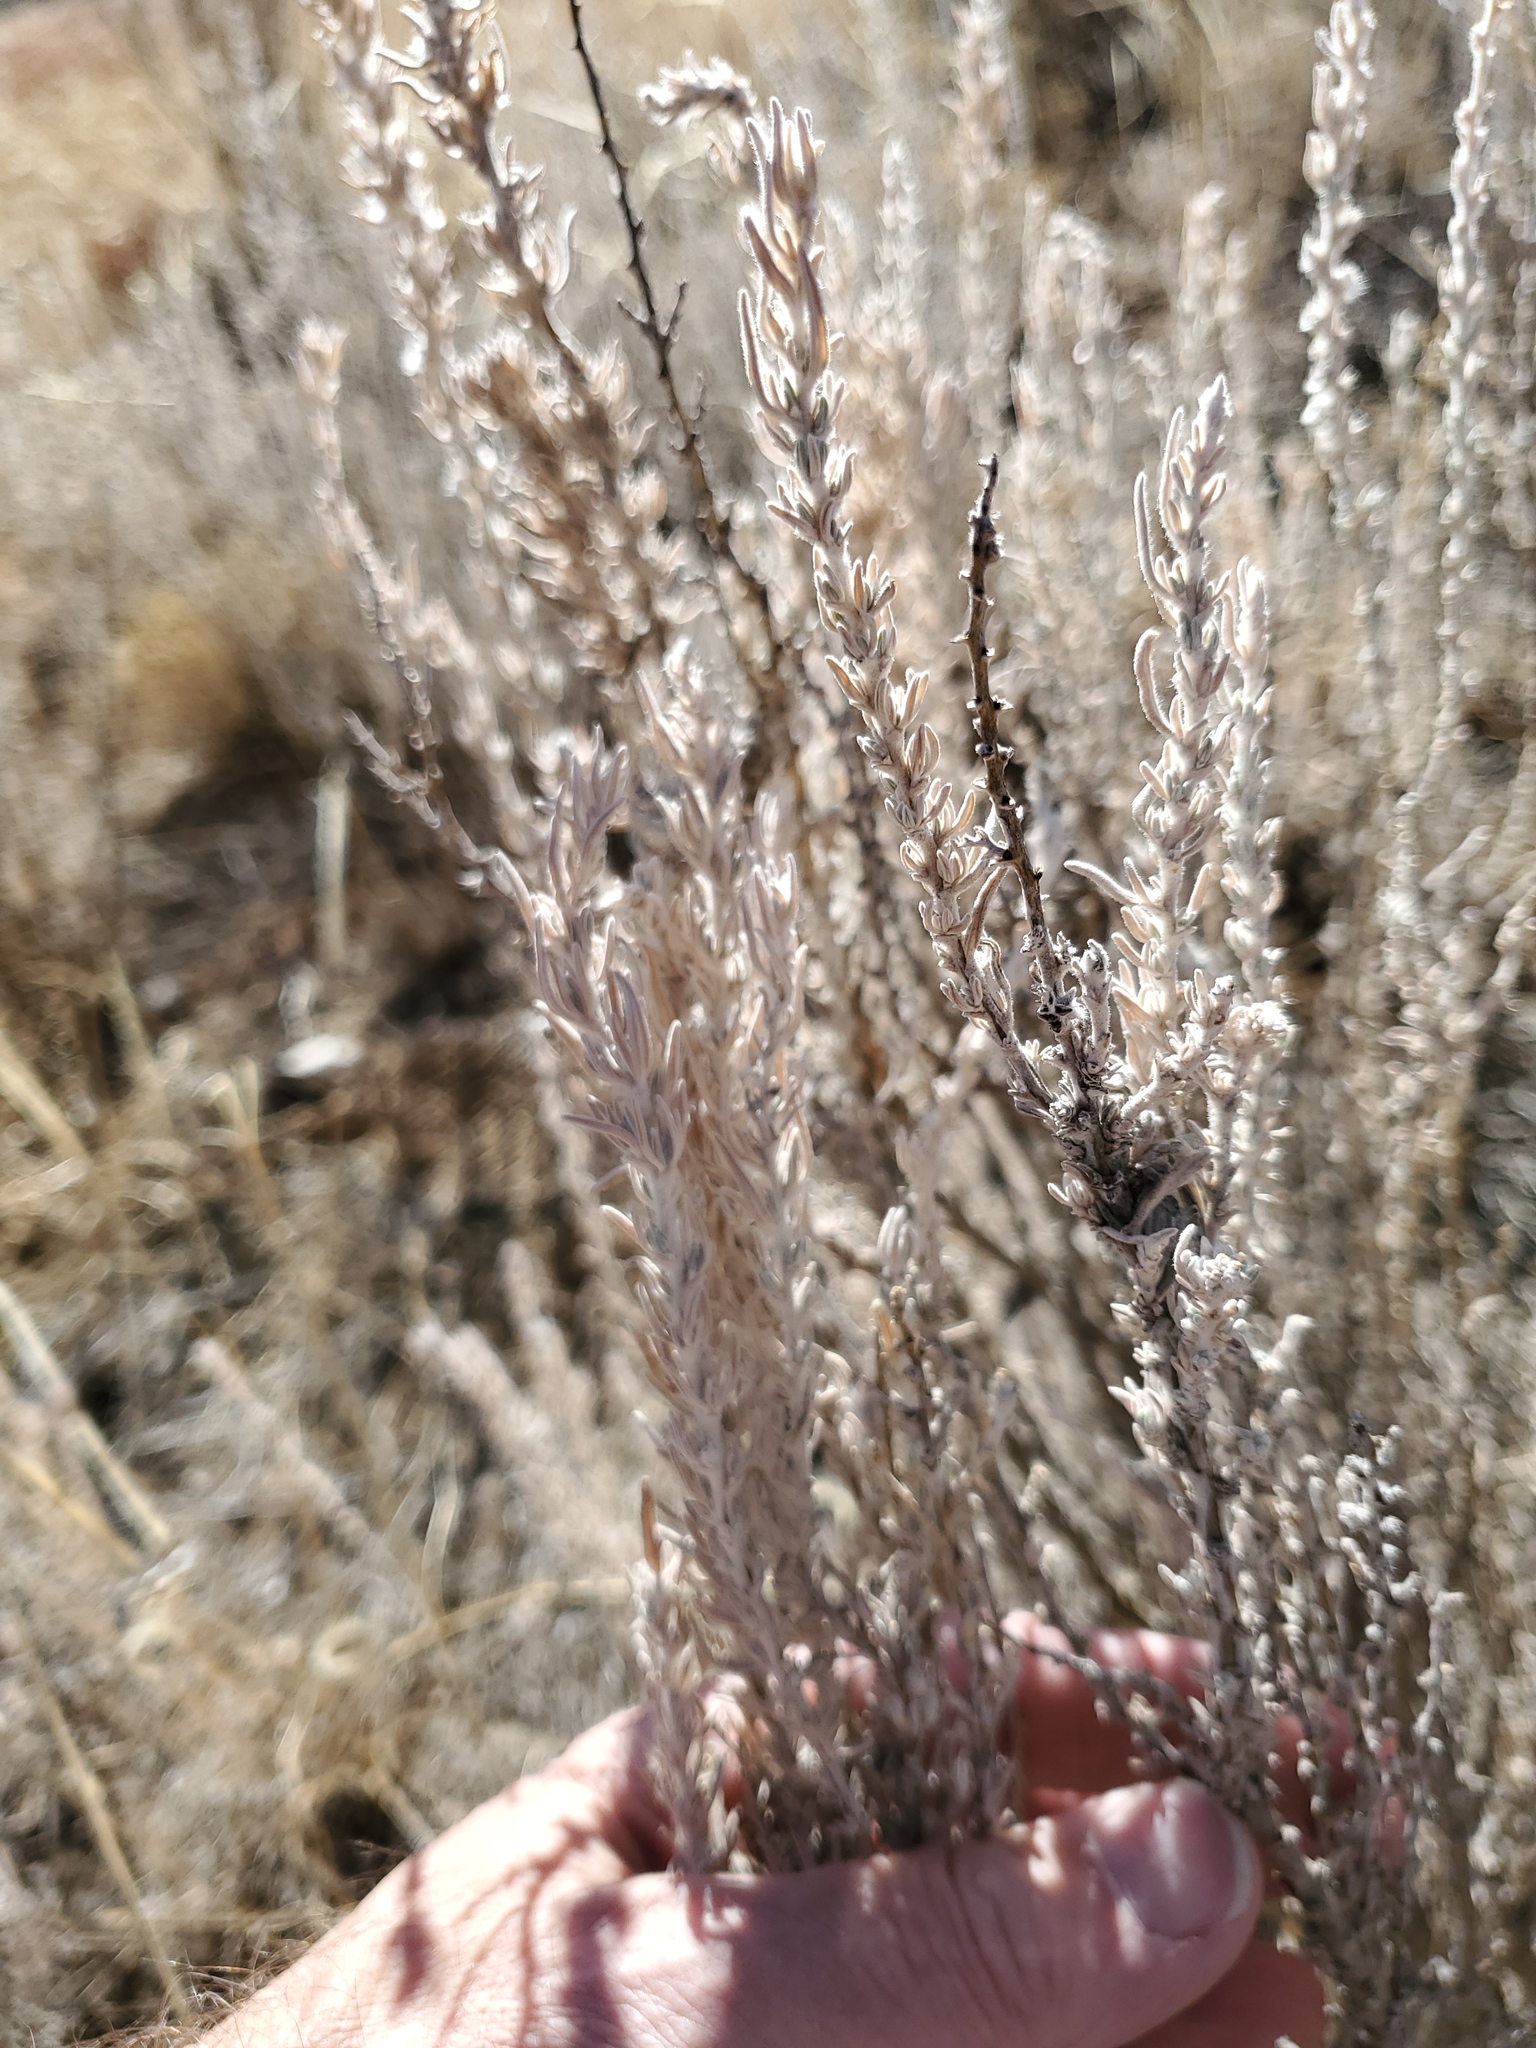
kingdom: Plantae
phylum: Tracheophyta
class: Magnoliopsida
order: Caryophyllales
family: Amaranthaceae
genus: Krascheninnikovia
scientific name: Krascheninnikovia lanata
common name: Winterfat
